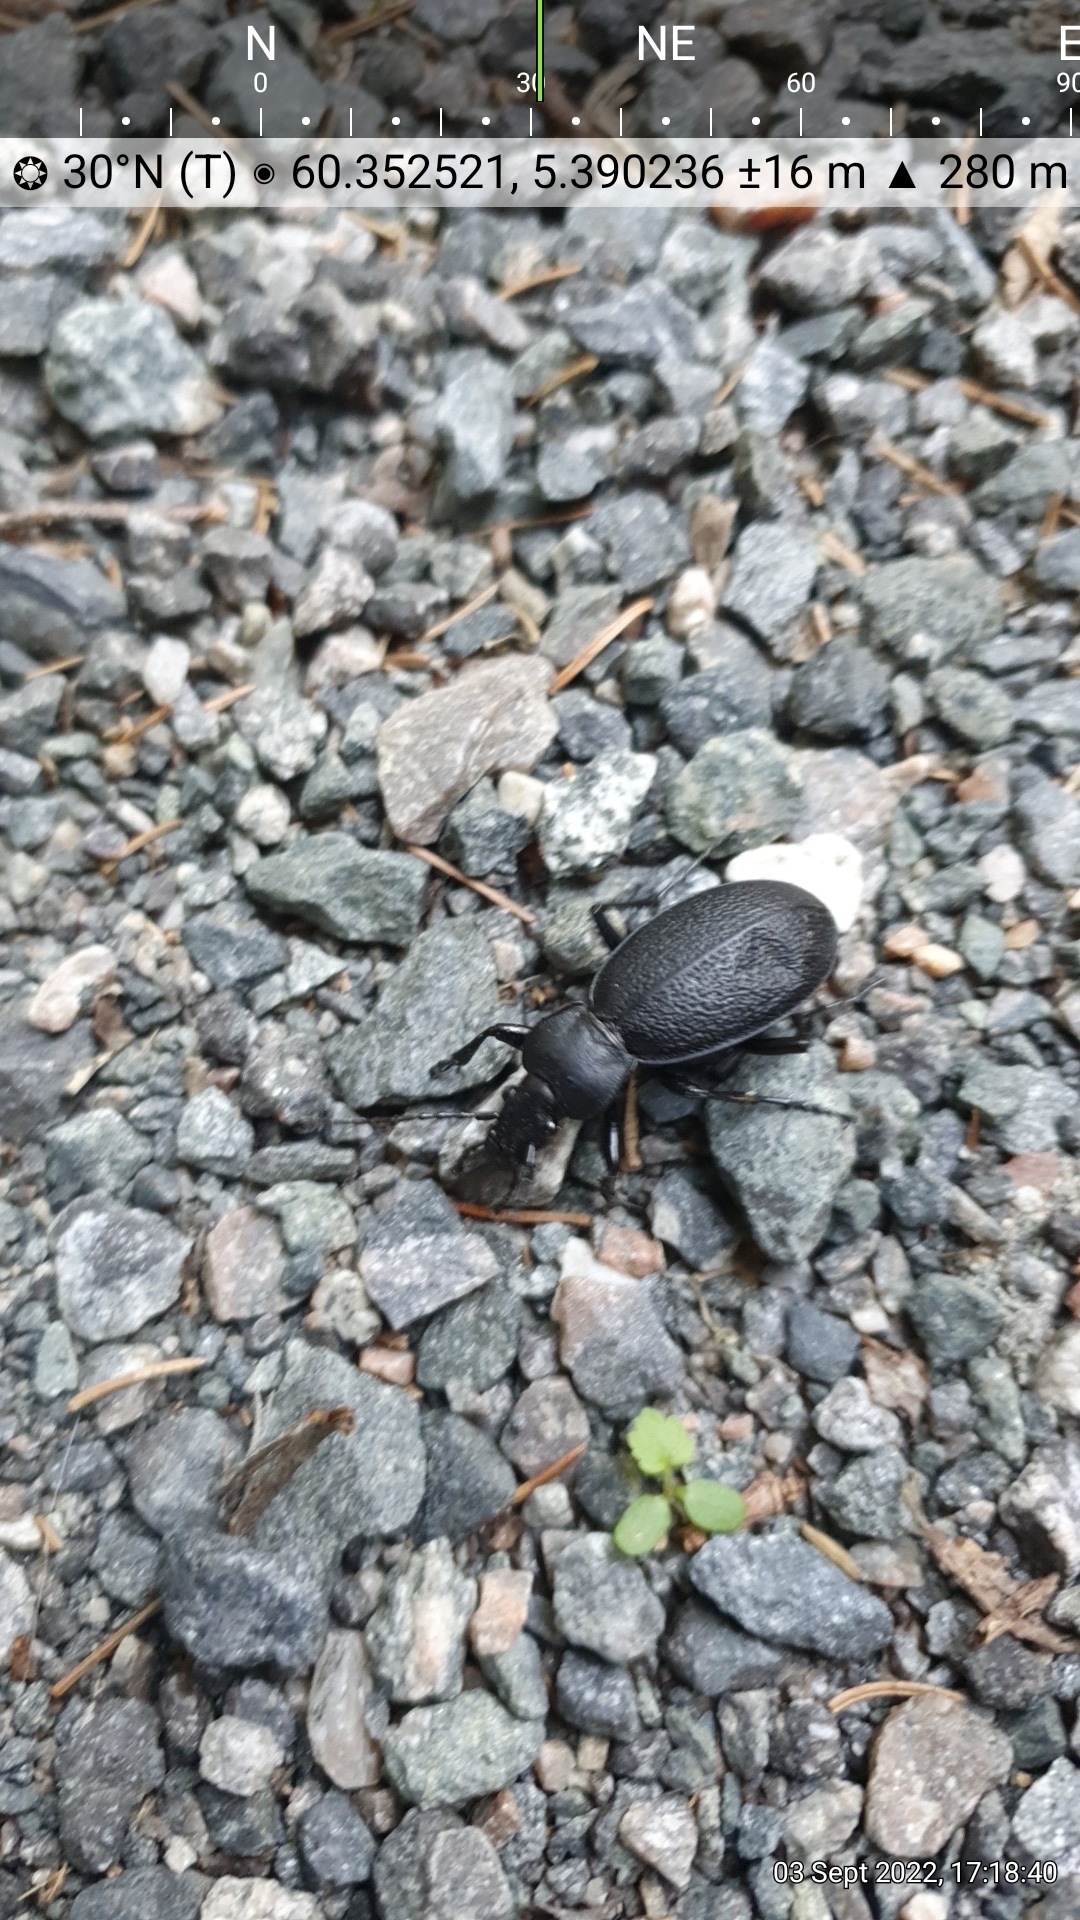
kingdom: Animalia
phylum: Arthropoda
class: Insecta
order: Coleoptera
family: Carabidae
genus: Carabus
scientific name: Carabus coriaceus
